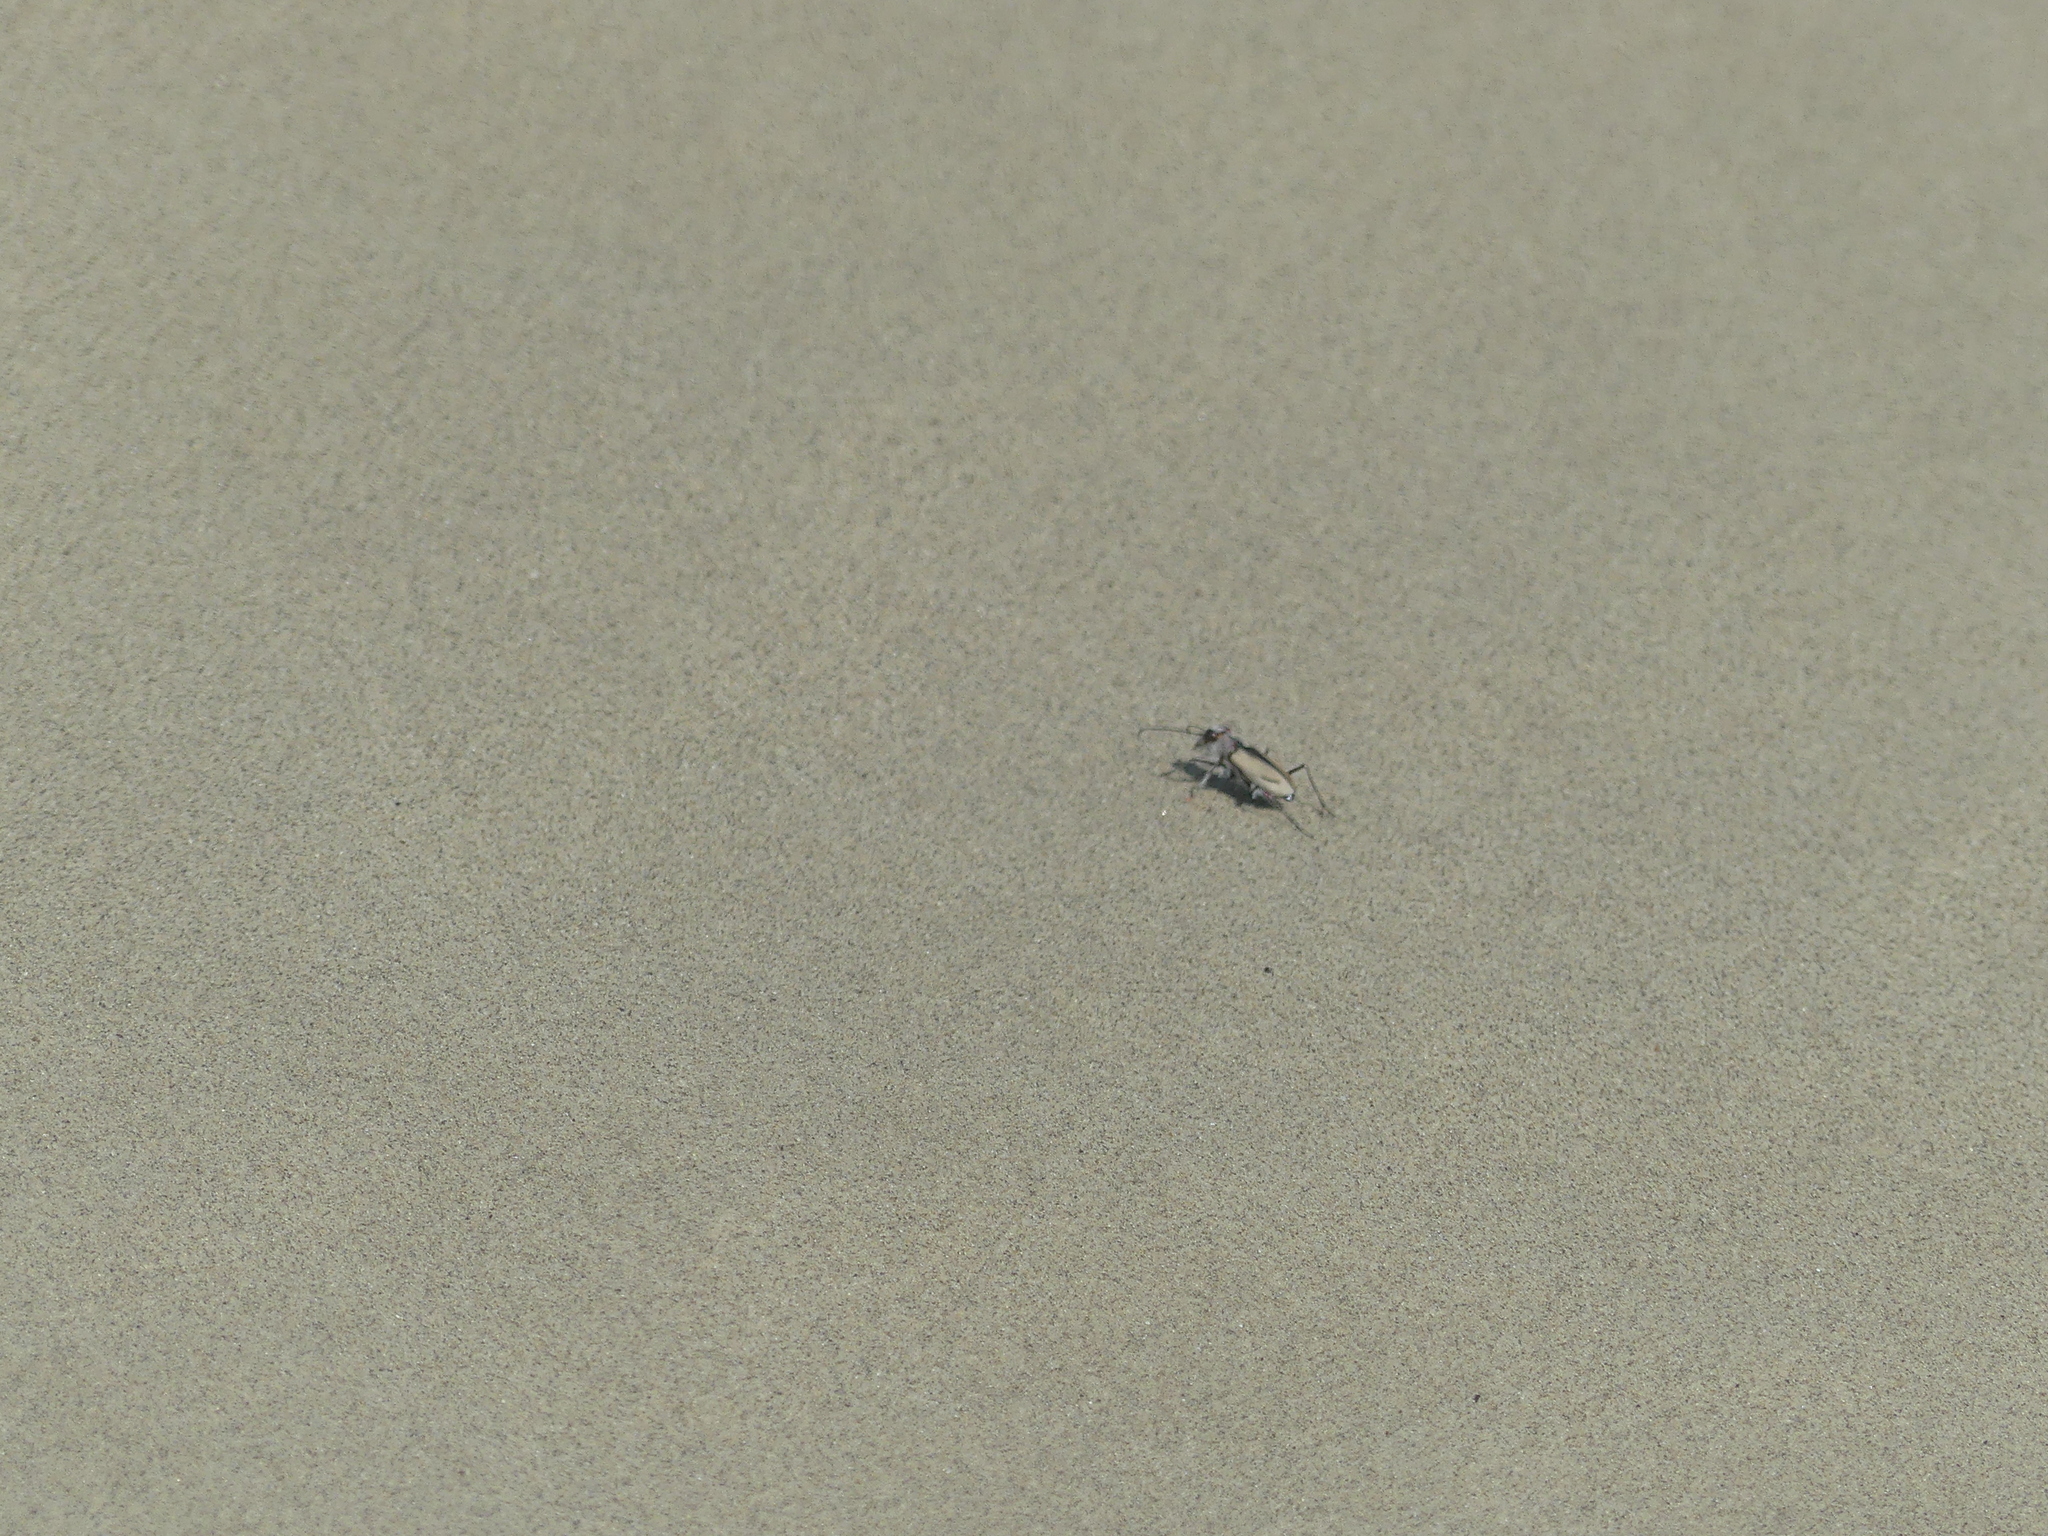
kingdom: Animalia
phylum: Arthropoda
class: Insecta
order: Coleoptera
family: Carabidae
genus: Cicindela
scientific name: Cicindela limbata
